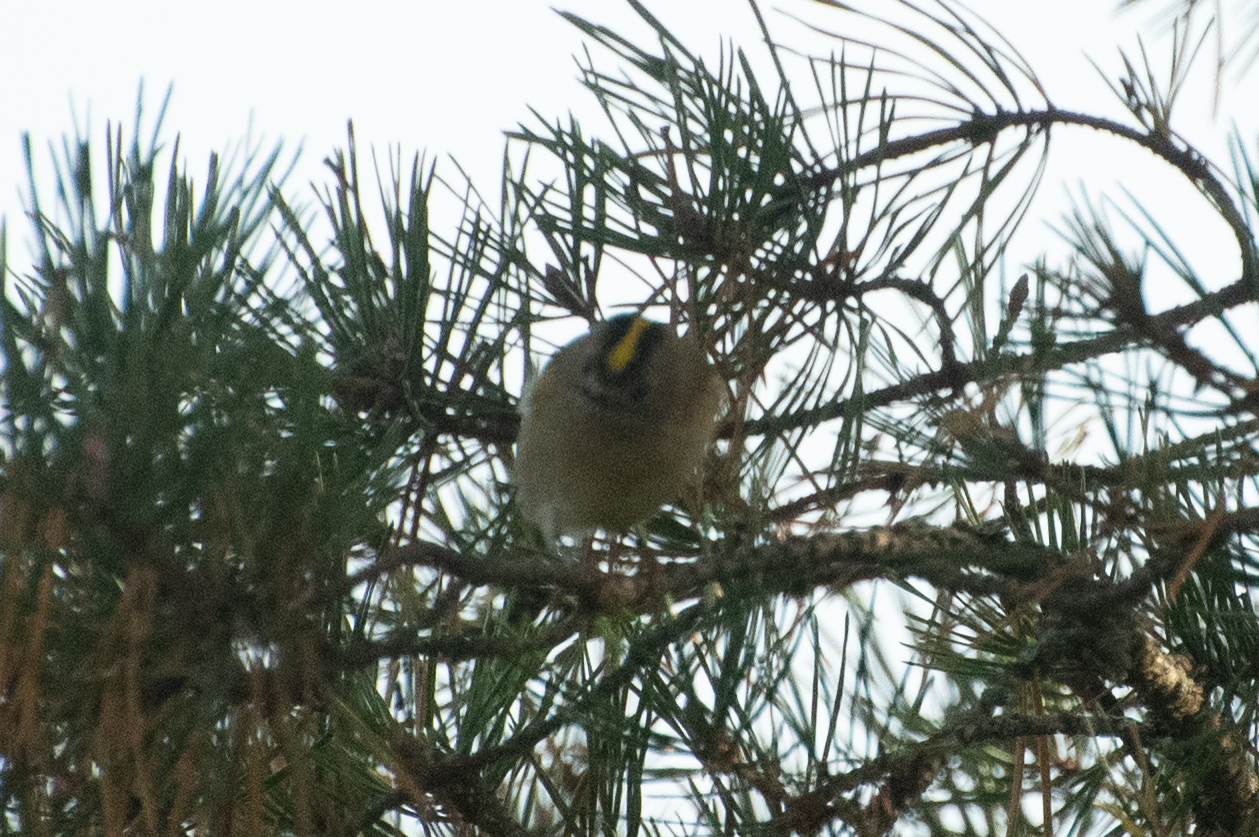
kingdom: Animalia
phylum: Chordata
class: Aves
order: Passeriformes
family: Regulidae
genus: Regulus
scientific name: Regulus regulus
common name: Goldcrest
